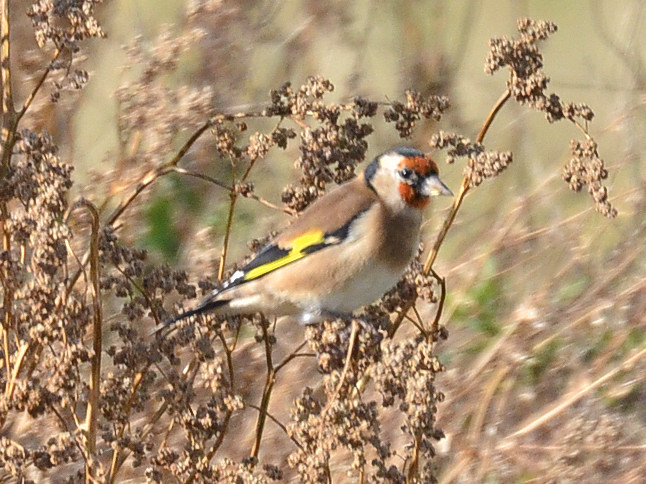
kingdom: Animalia
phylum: Chordata
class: Aves
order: Passeriformes
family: Fringillidae
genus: Carduelis
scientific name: Carduelis carduelis
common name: European goldfinch
